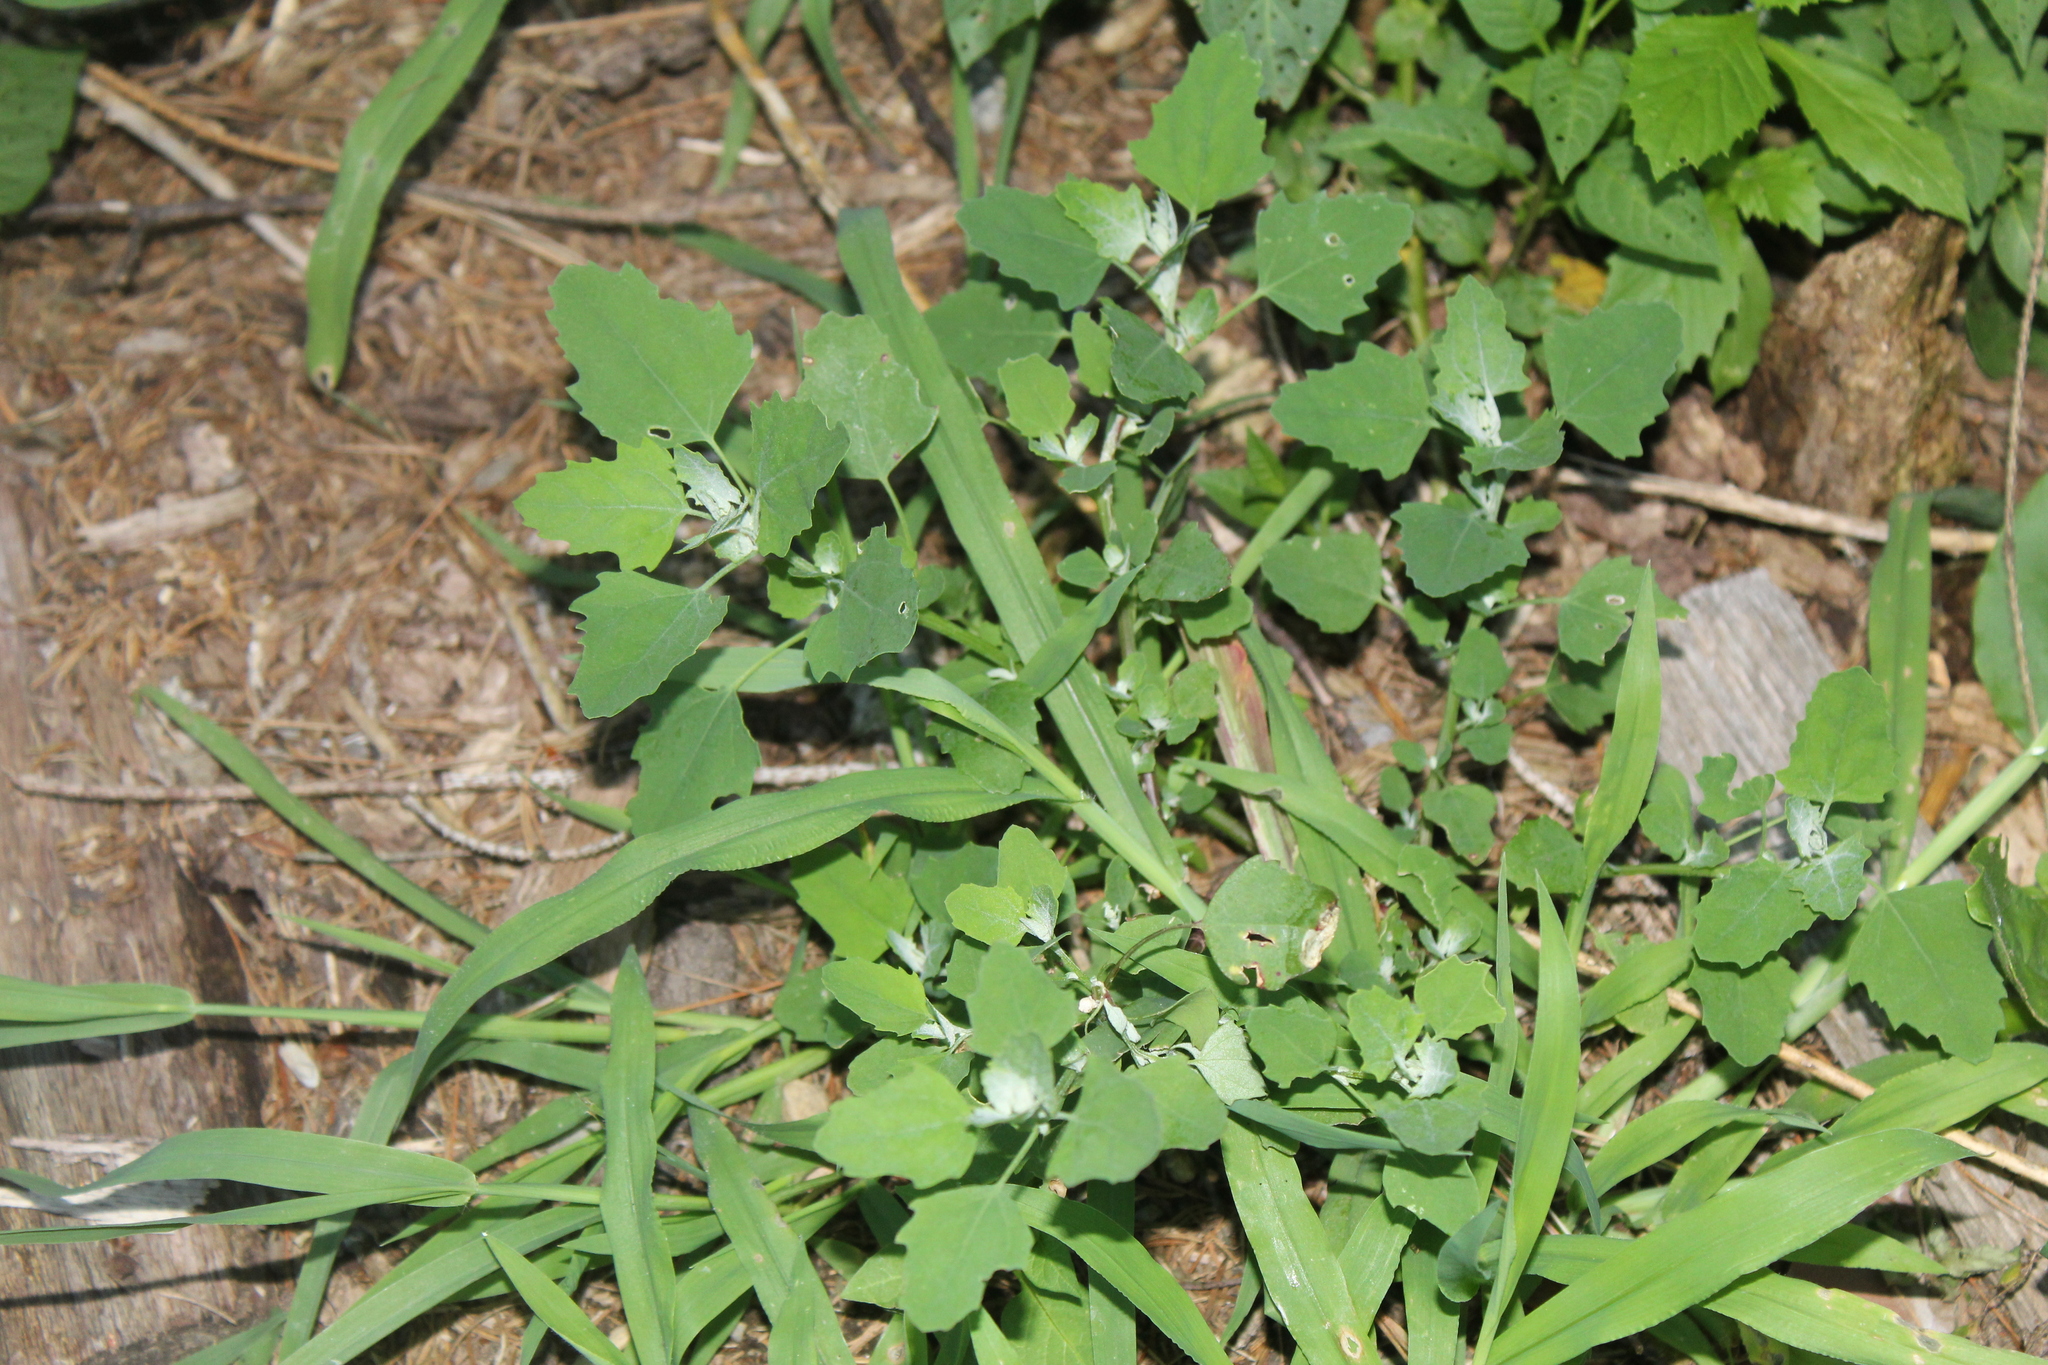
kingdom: Plantae
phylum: Tracheophyta
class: Magnoliopsida
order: Caryophyllales
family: Amaranthaceae
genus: Chenopodium
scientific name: Chenopodium album
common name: Fat-hen
